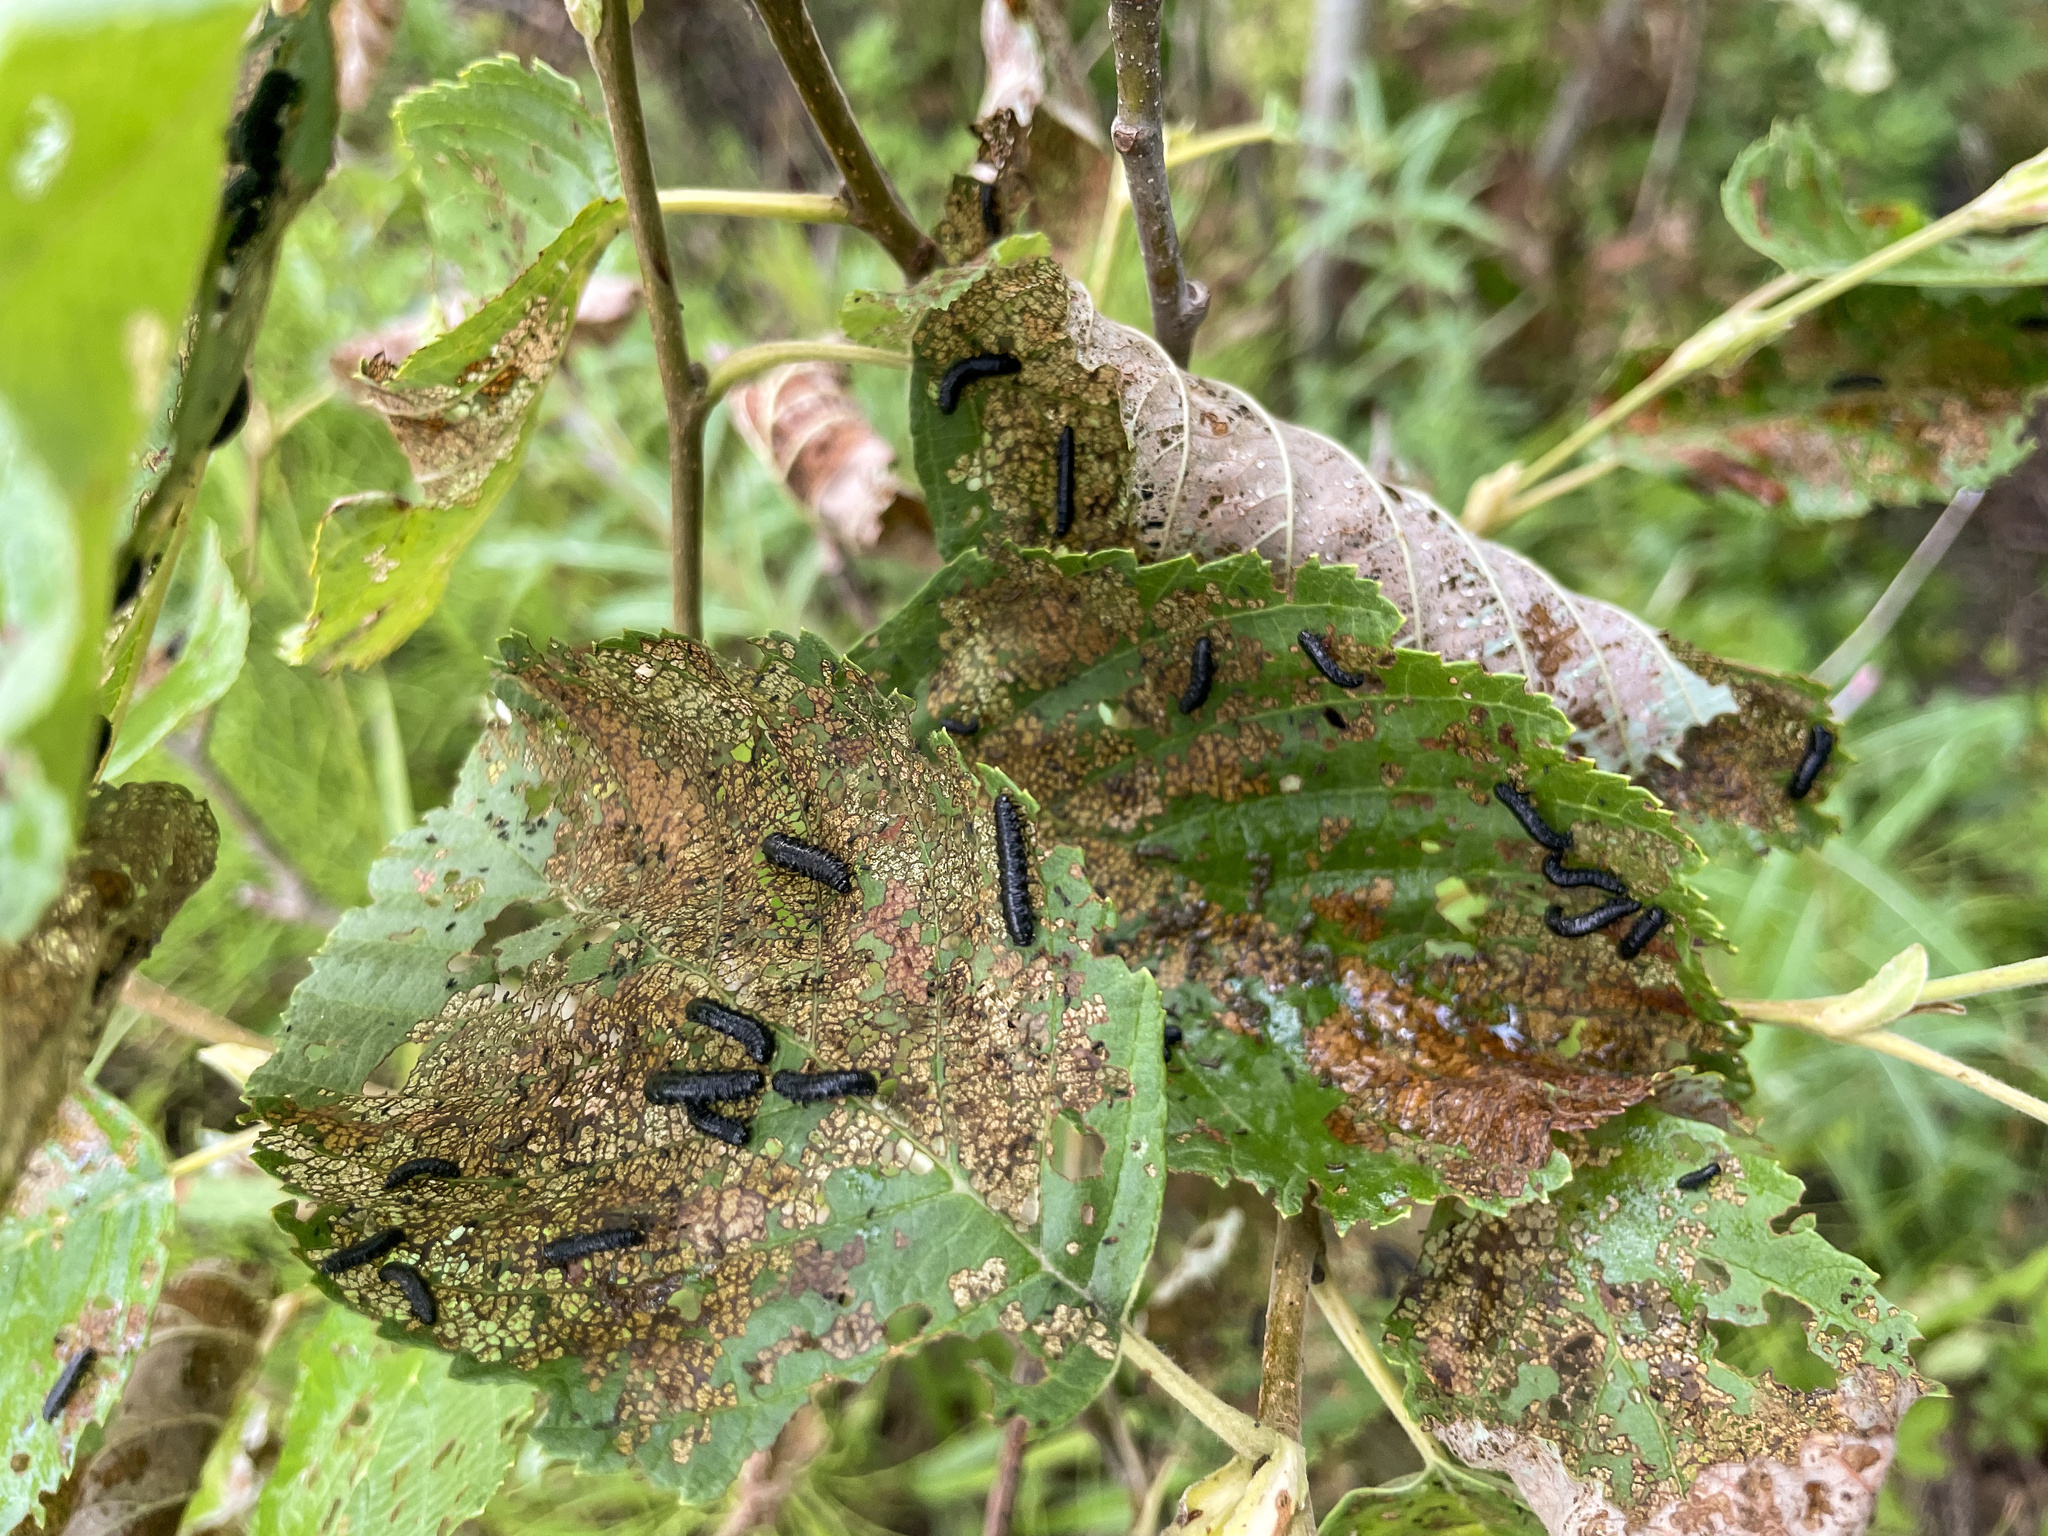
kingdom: Animalia
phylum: Arthropoda
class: Insecta
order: Coleoptera
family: Chrysomelidae
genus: Agelastica
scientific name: Agelastica alni
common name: Alder leaf beetle
